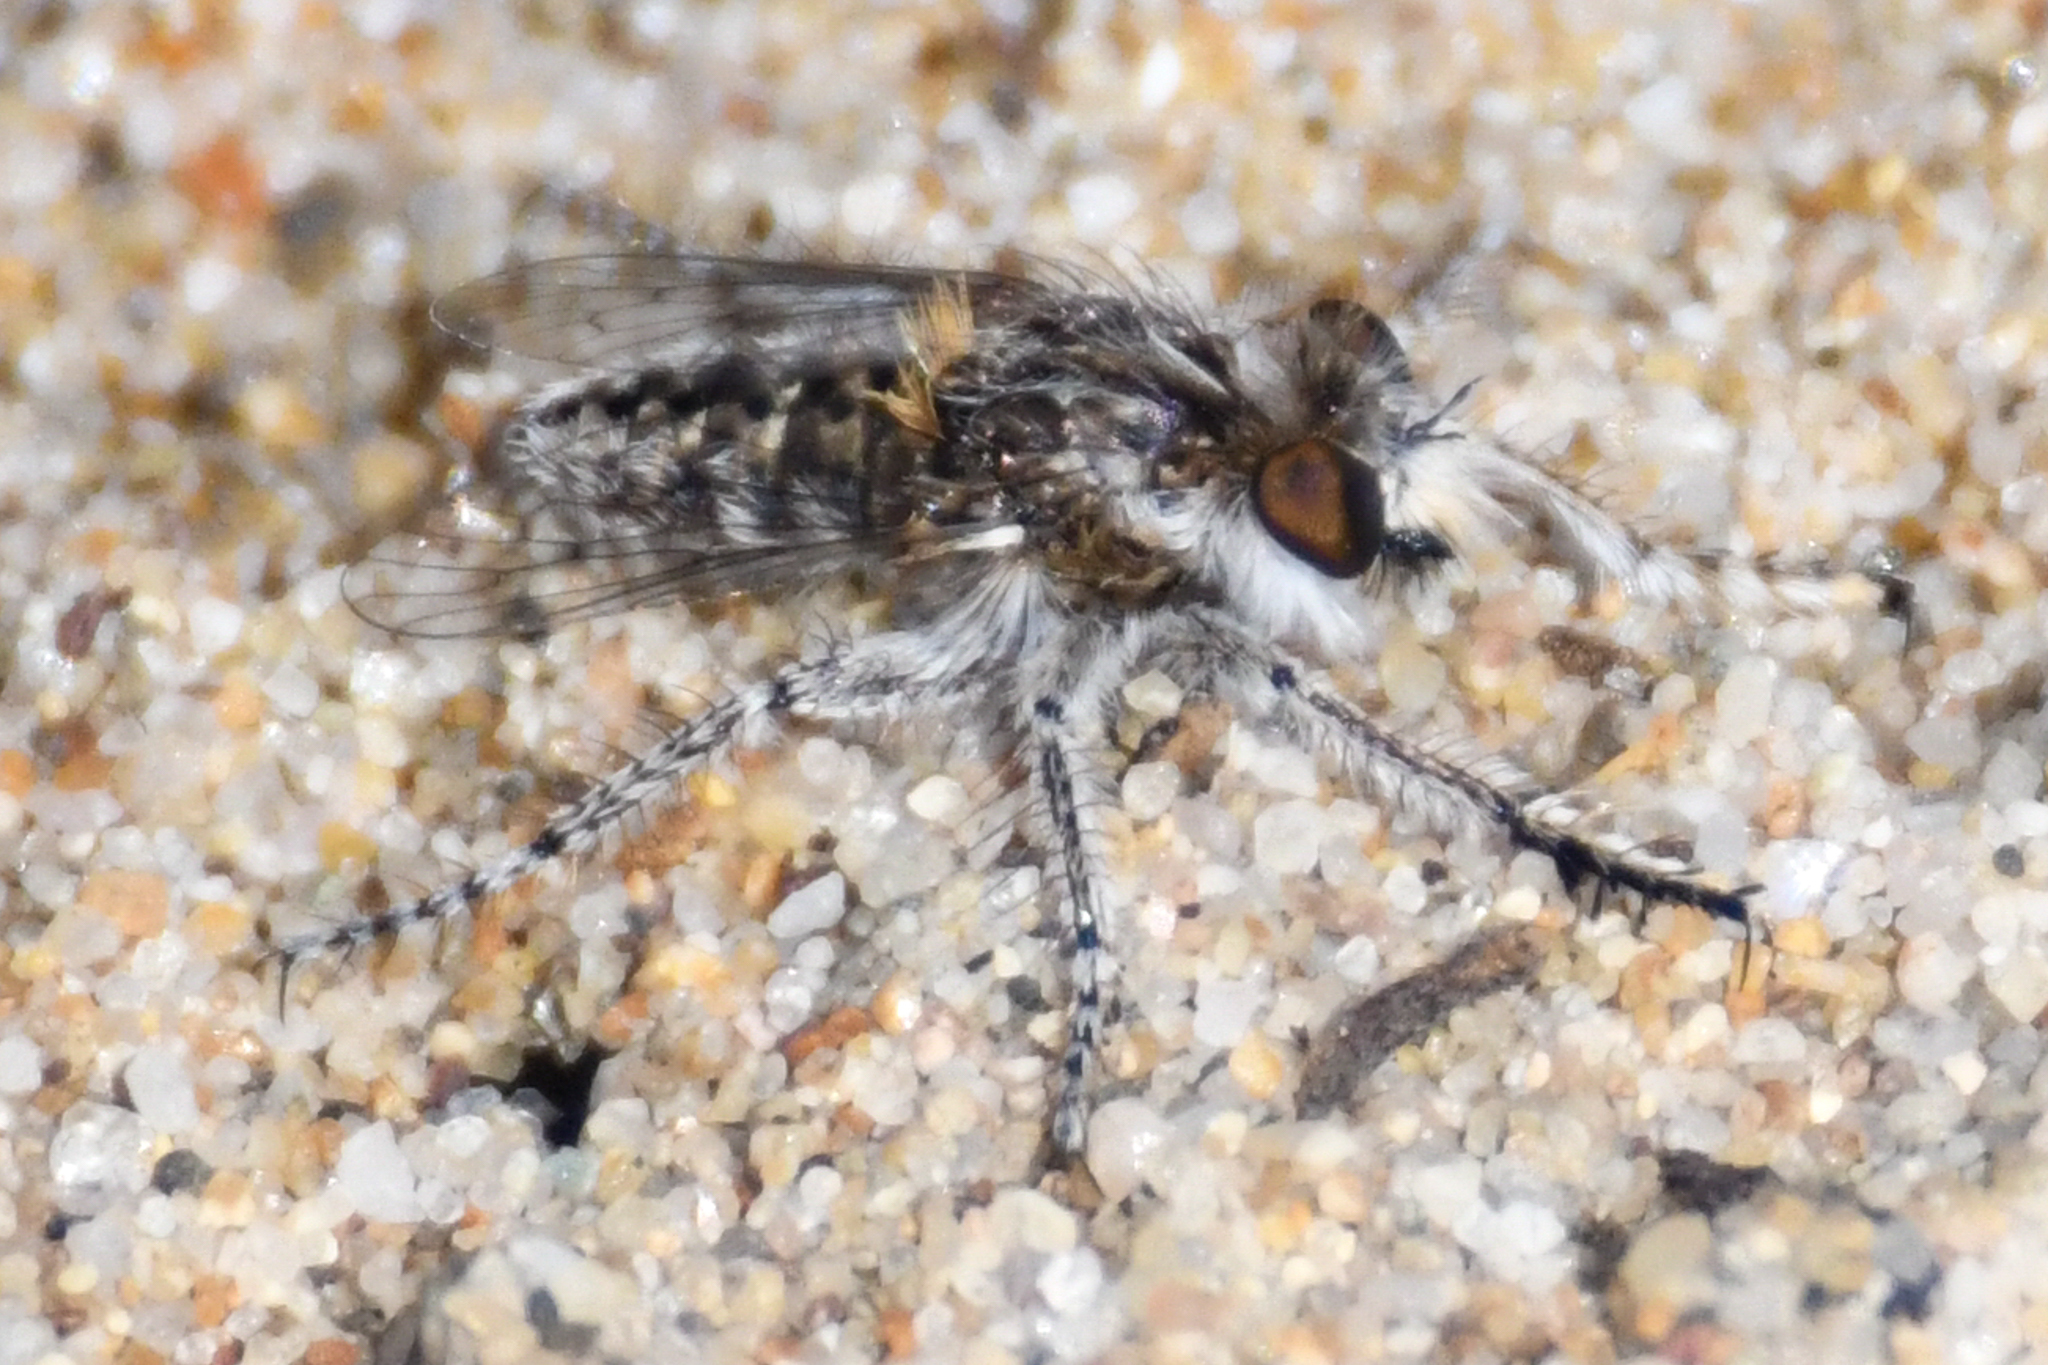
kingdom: Animalia
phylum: Arthropoda
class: Insecta
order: Diptera
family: Asilidae
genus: Ablautus
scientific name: Ablautus vanduzeei
